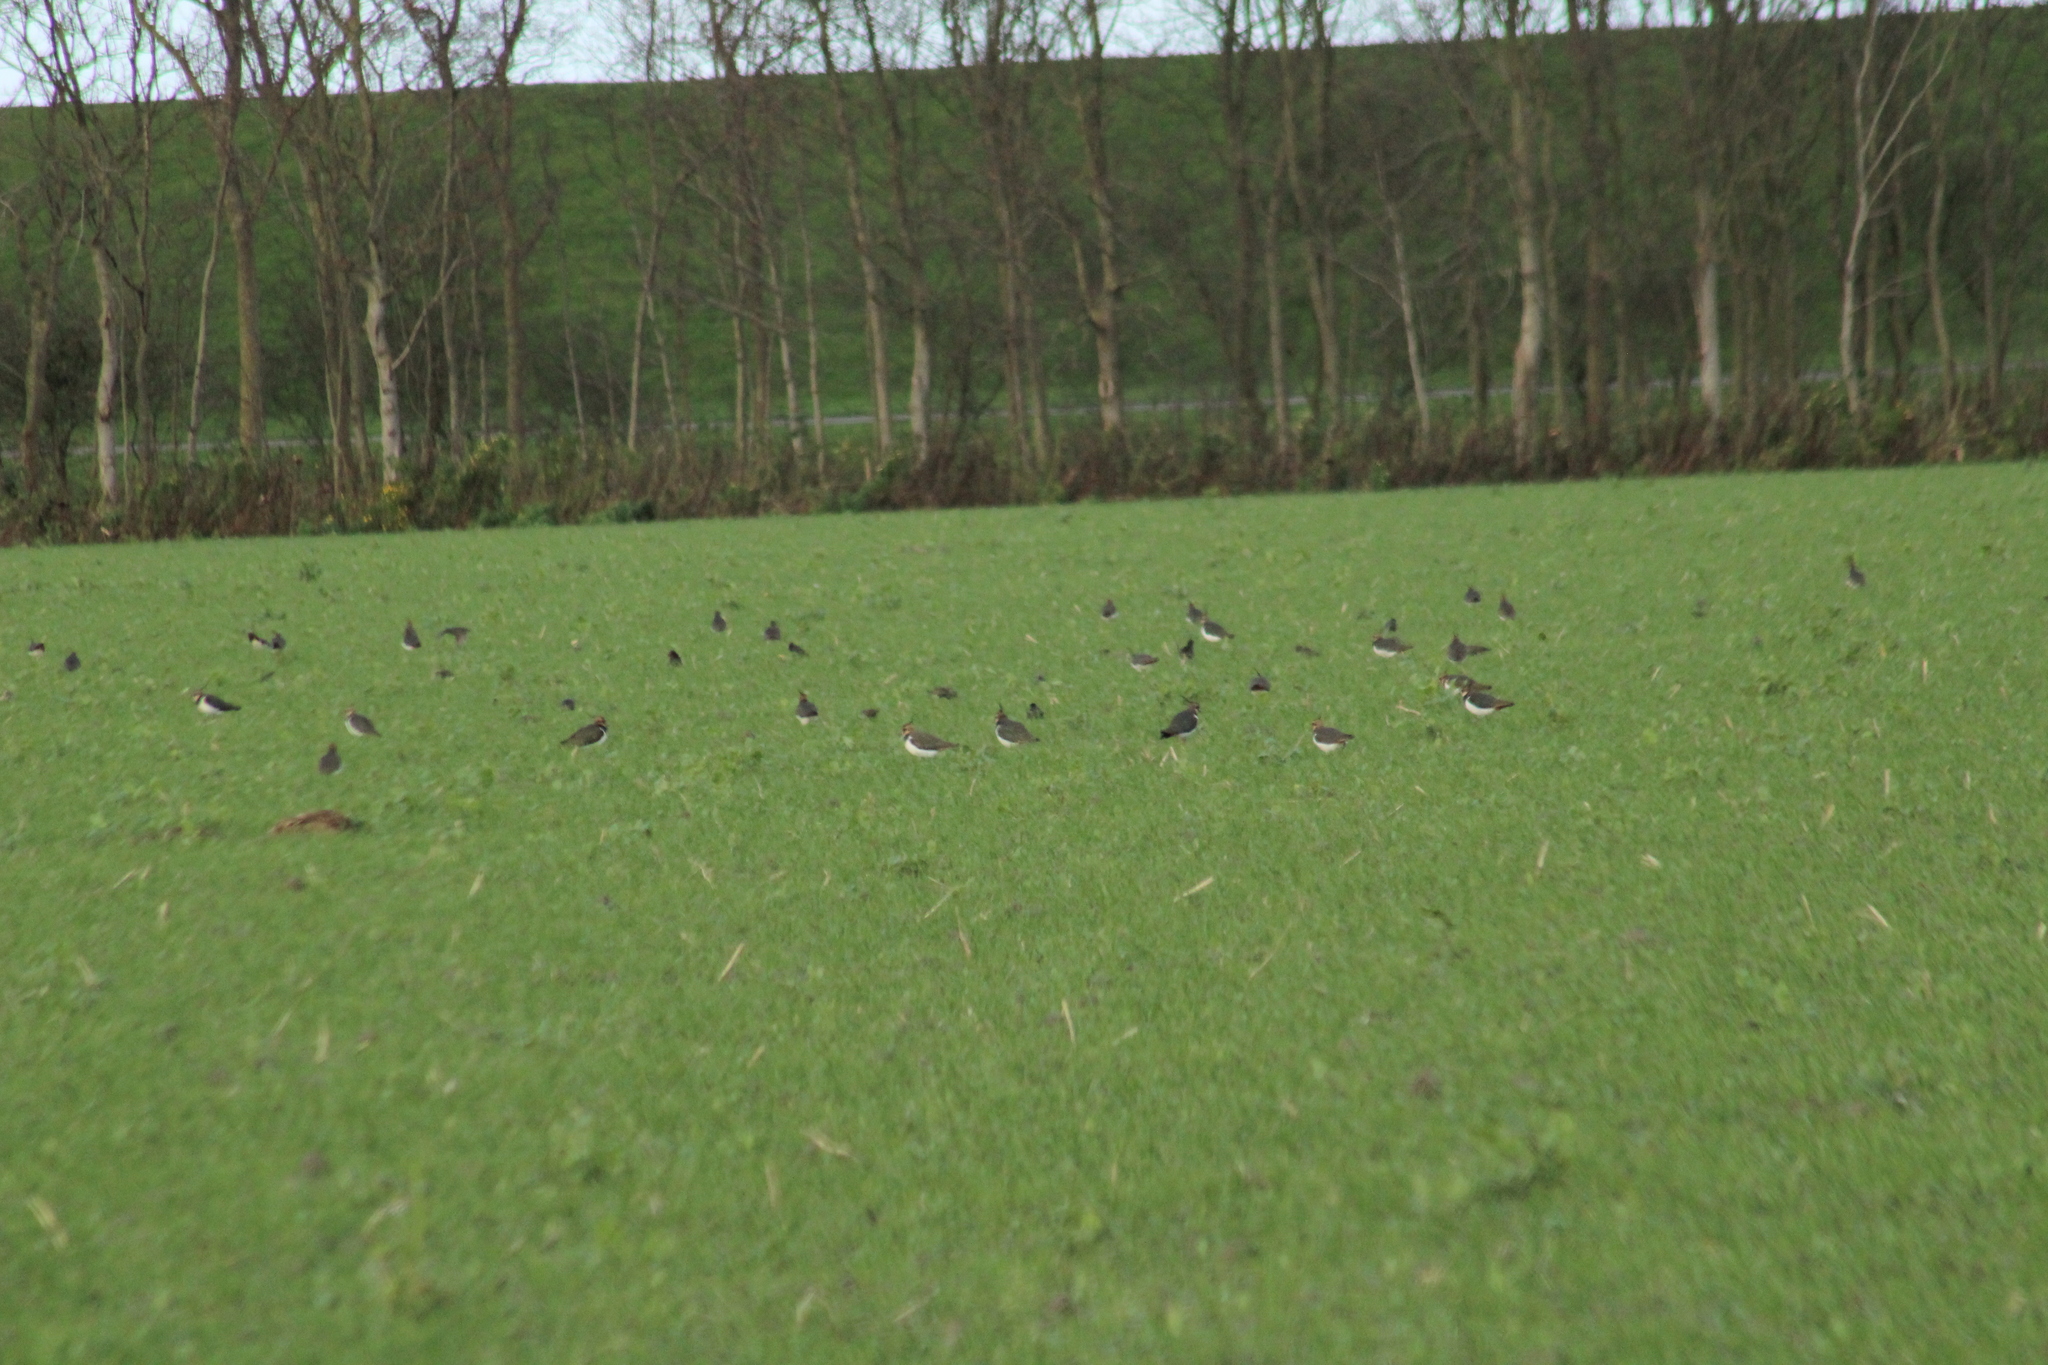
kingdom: Animalia
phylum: Chordata
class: Aves
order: Charadriiformes
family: Charadriidae
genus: Vanellus
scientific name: Vanellus vanellus
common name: Northern lapwing
